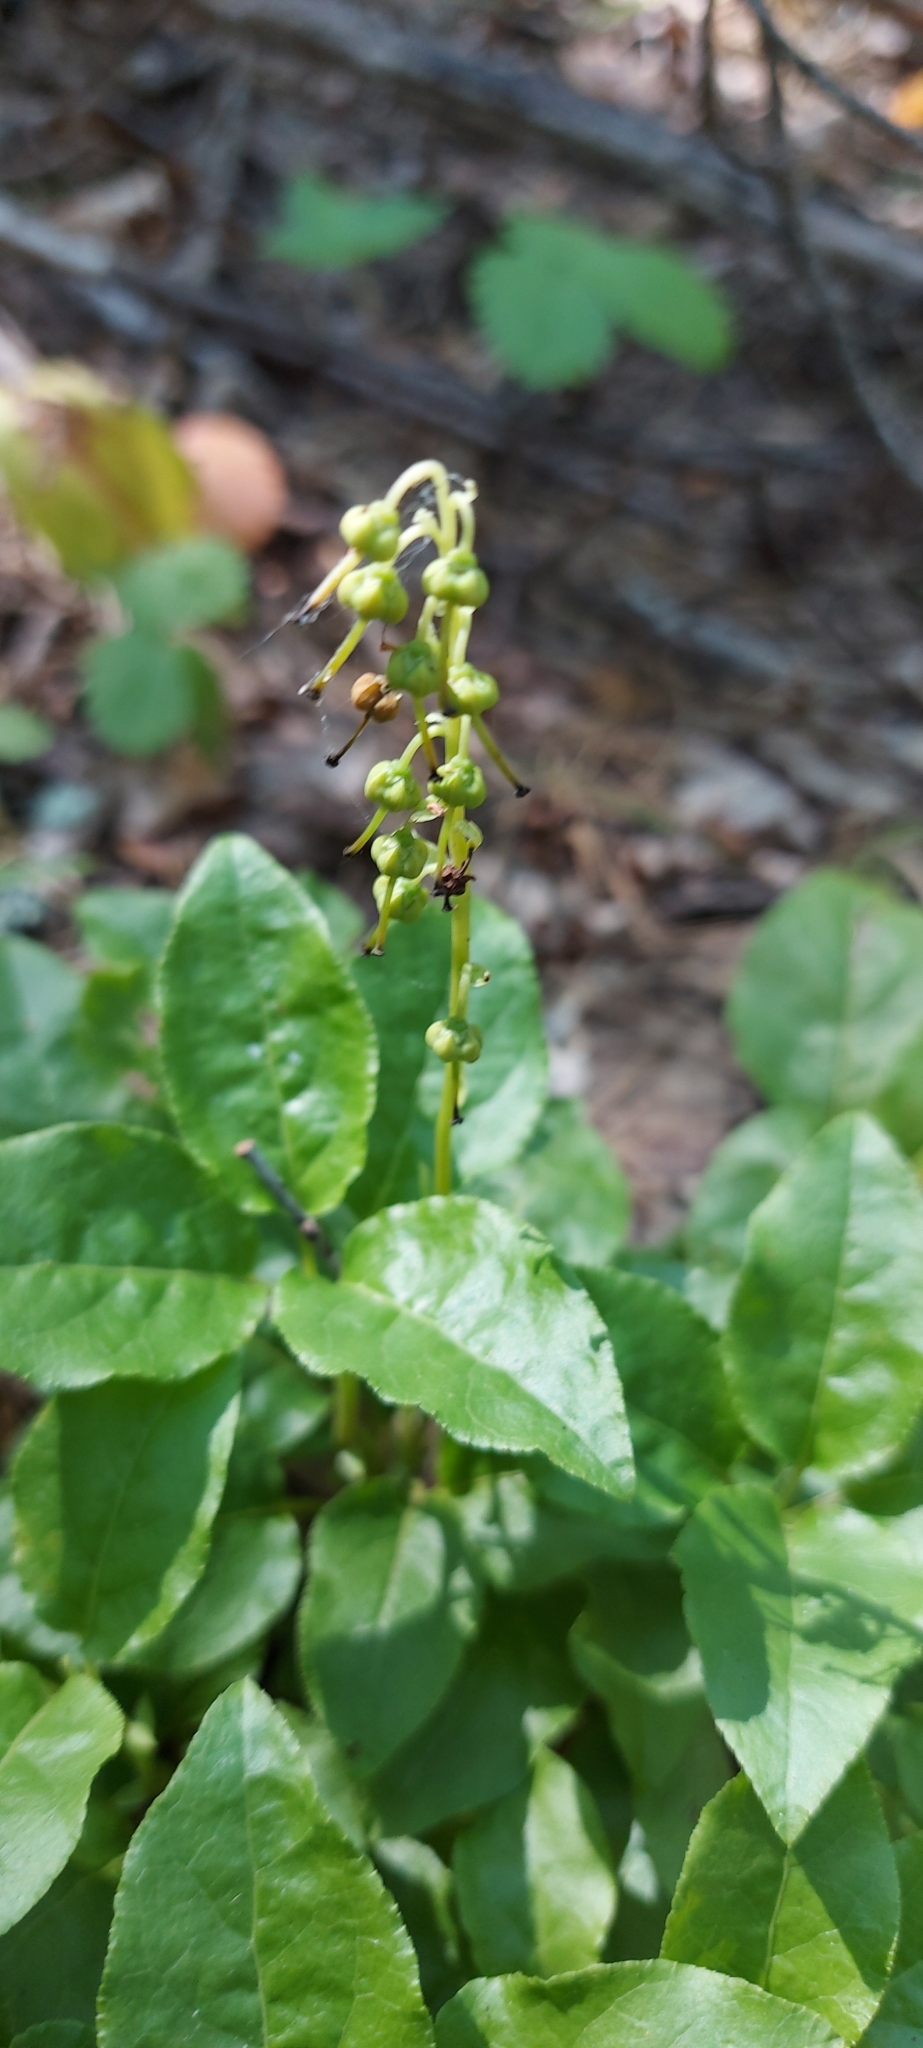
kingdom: Plantae
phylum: Tracheophyta
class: Magnoliopsida
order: Ericales
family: Ericaceae
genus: Orthilia
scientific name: Orthilia secunda
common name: One-sided orthilia
